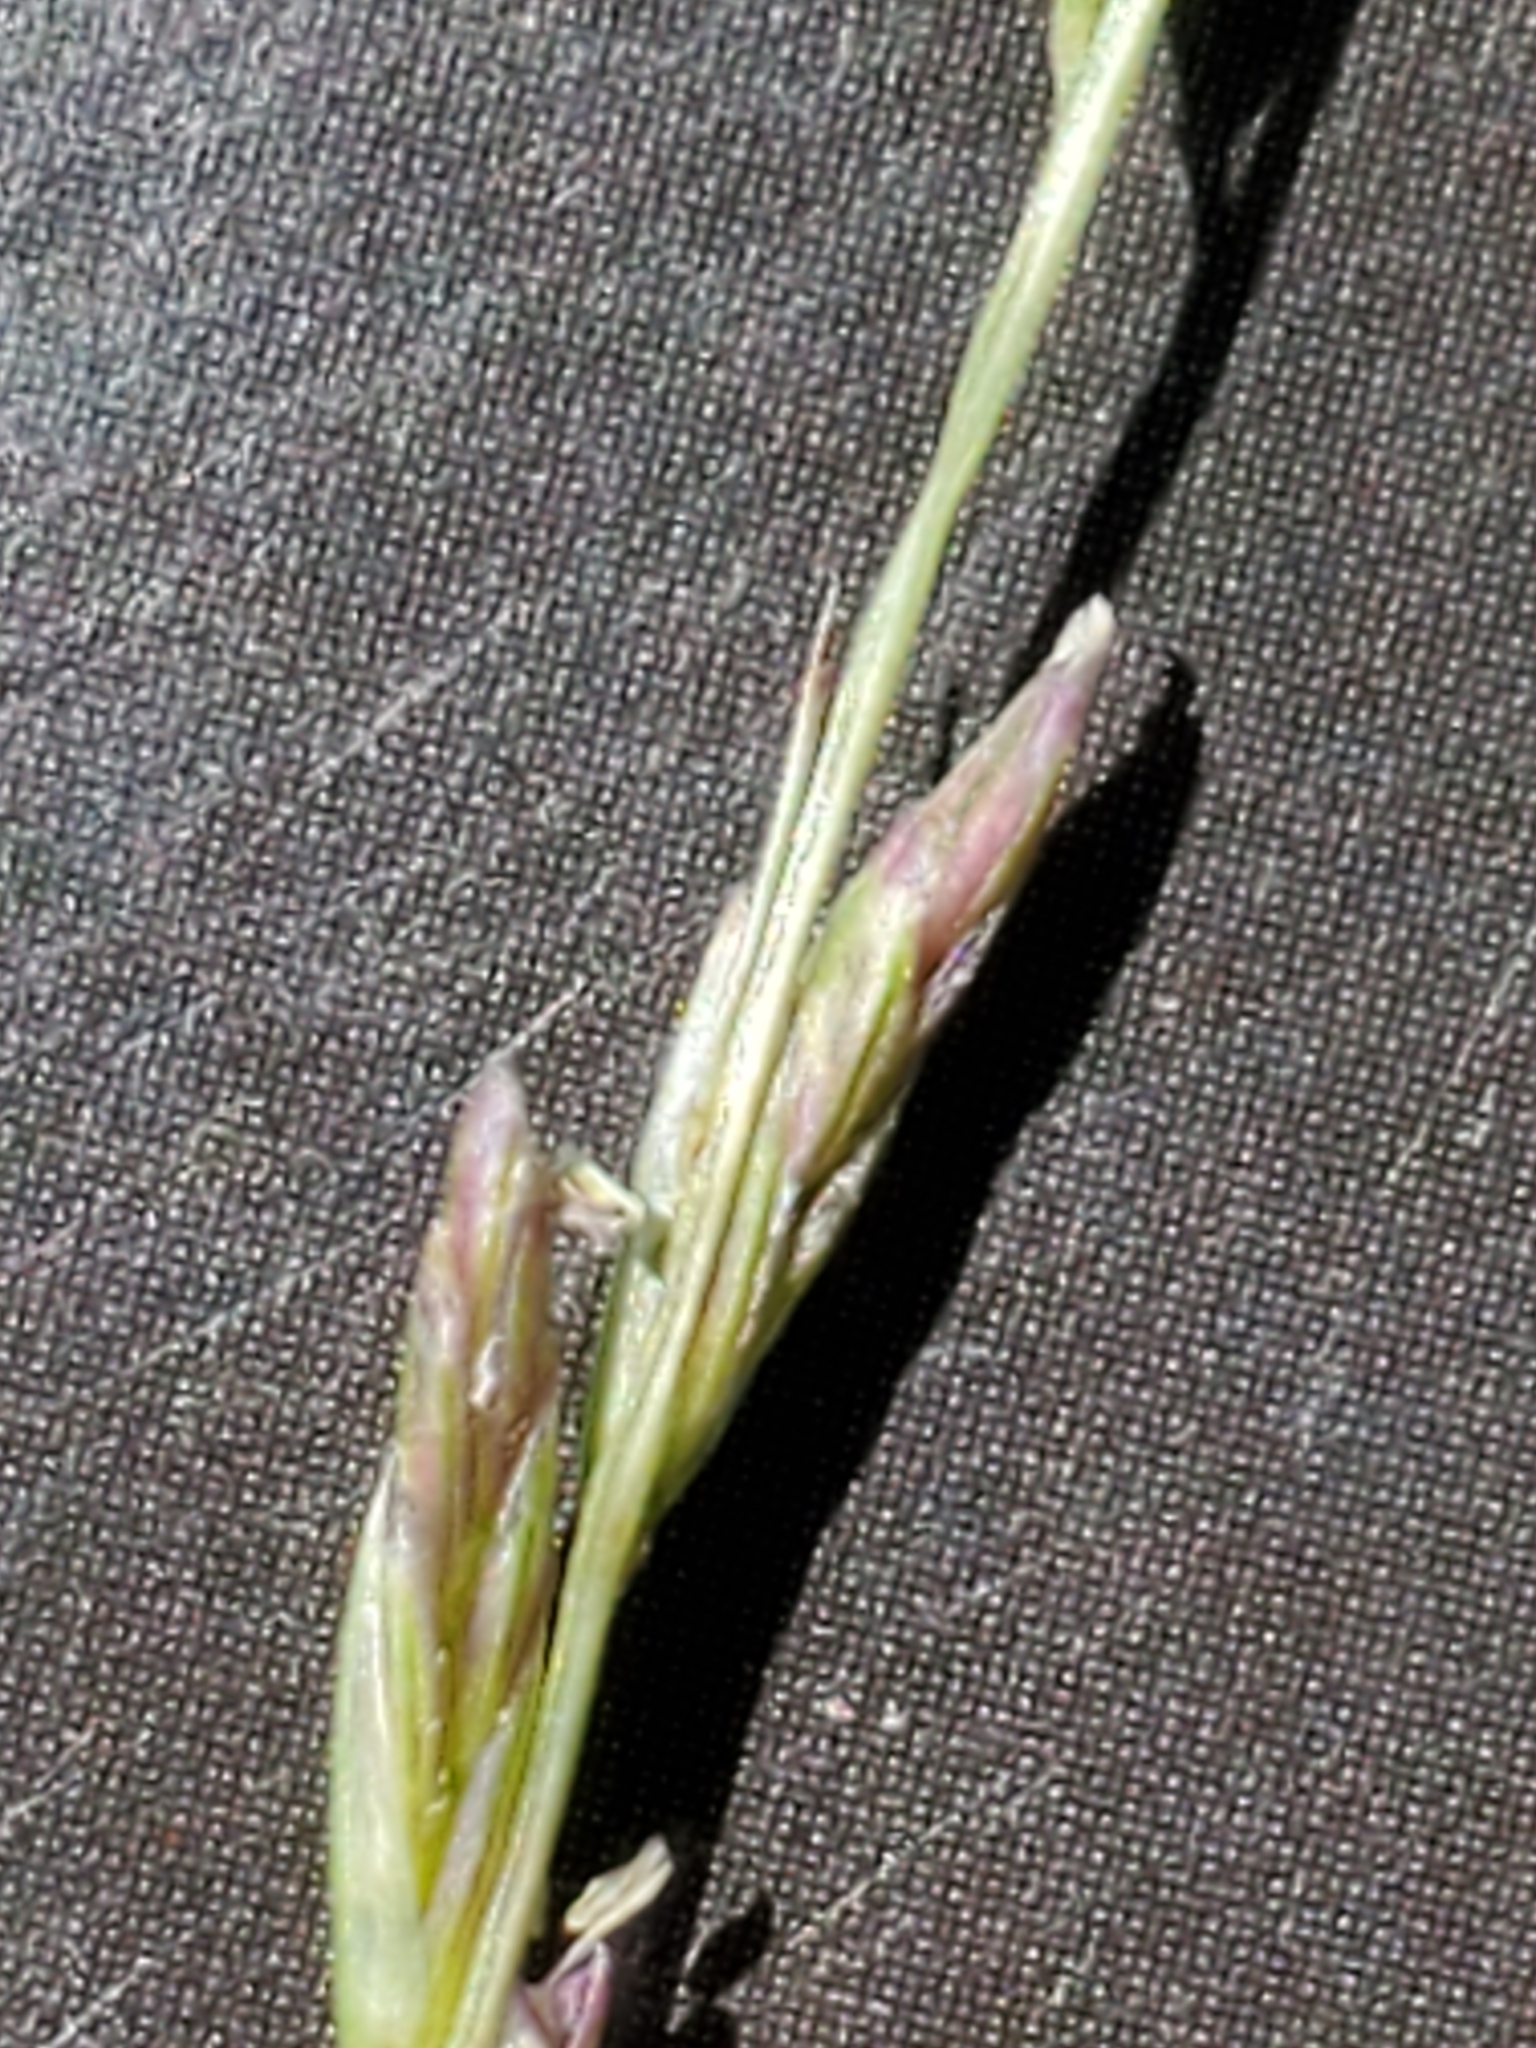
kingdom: Plantae
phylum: Tracheophyta
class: Liliopsida
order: Poales
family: Poaceae
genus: Disakisperma
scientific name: Disakisperma dubium
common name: Green sprangletop
